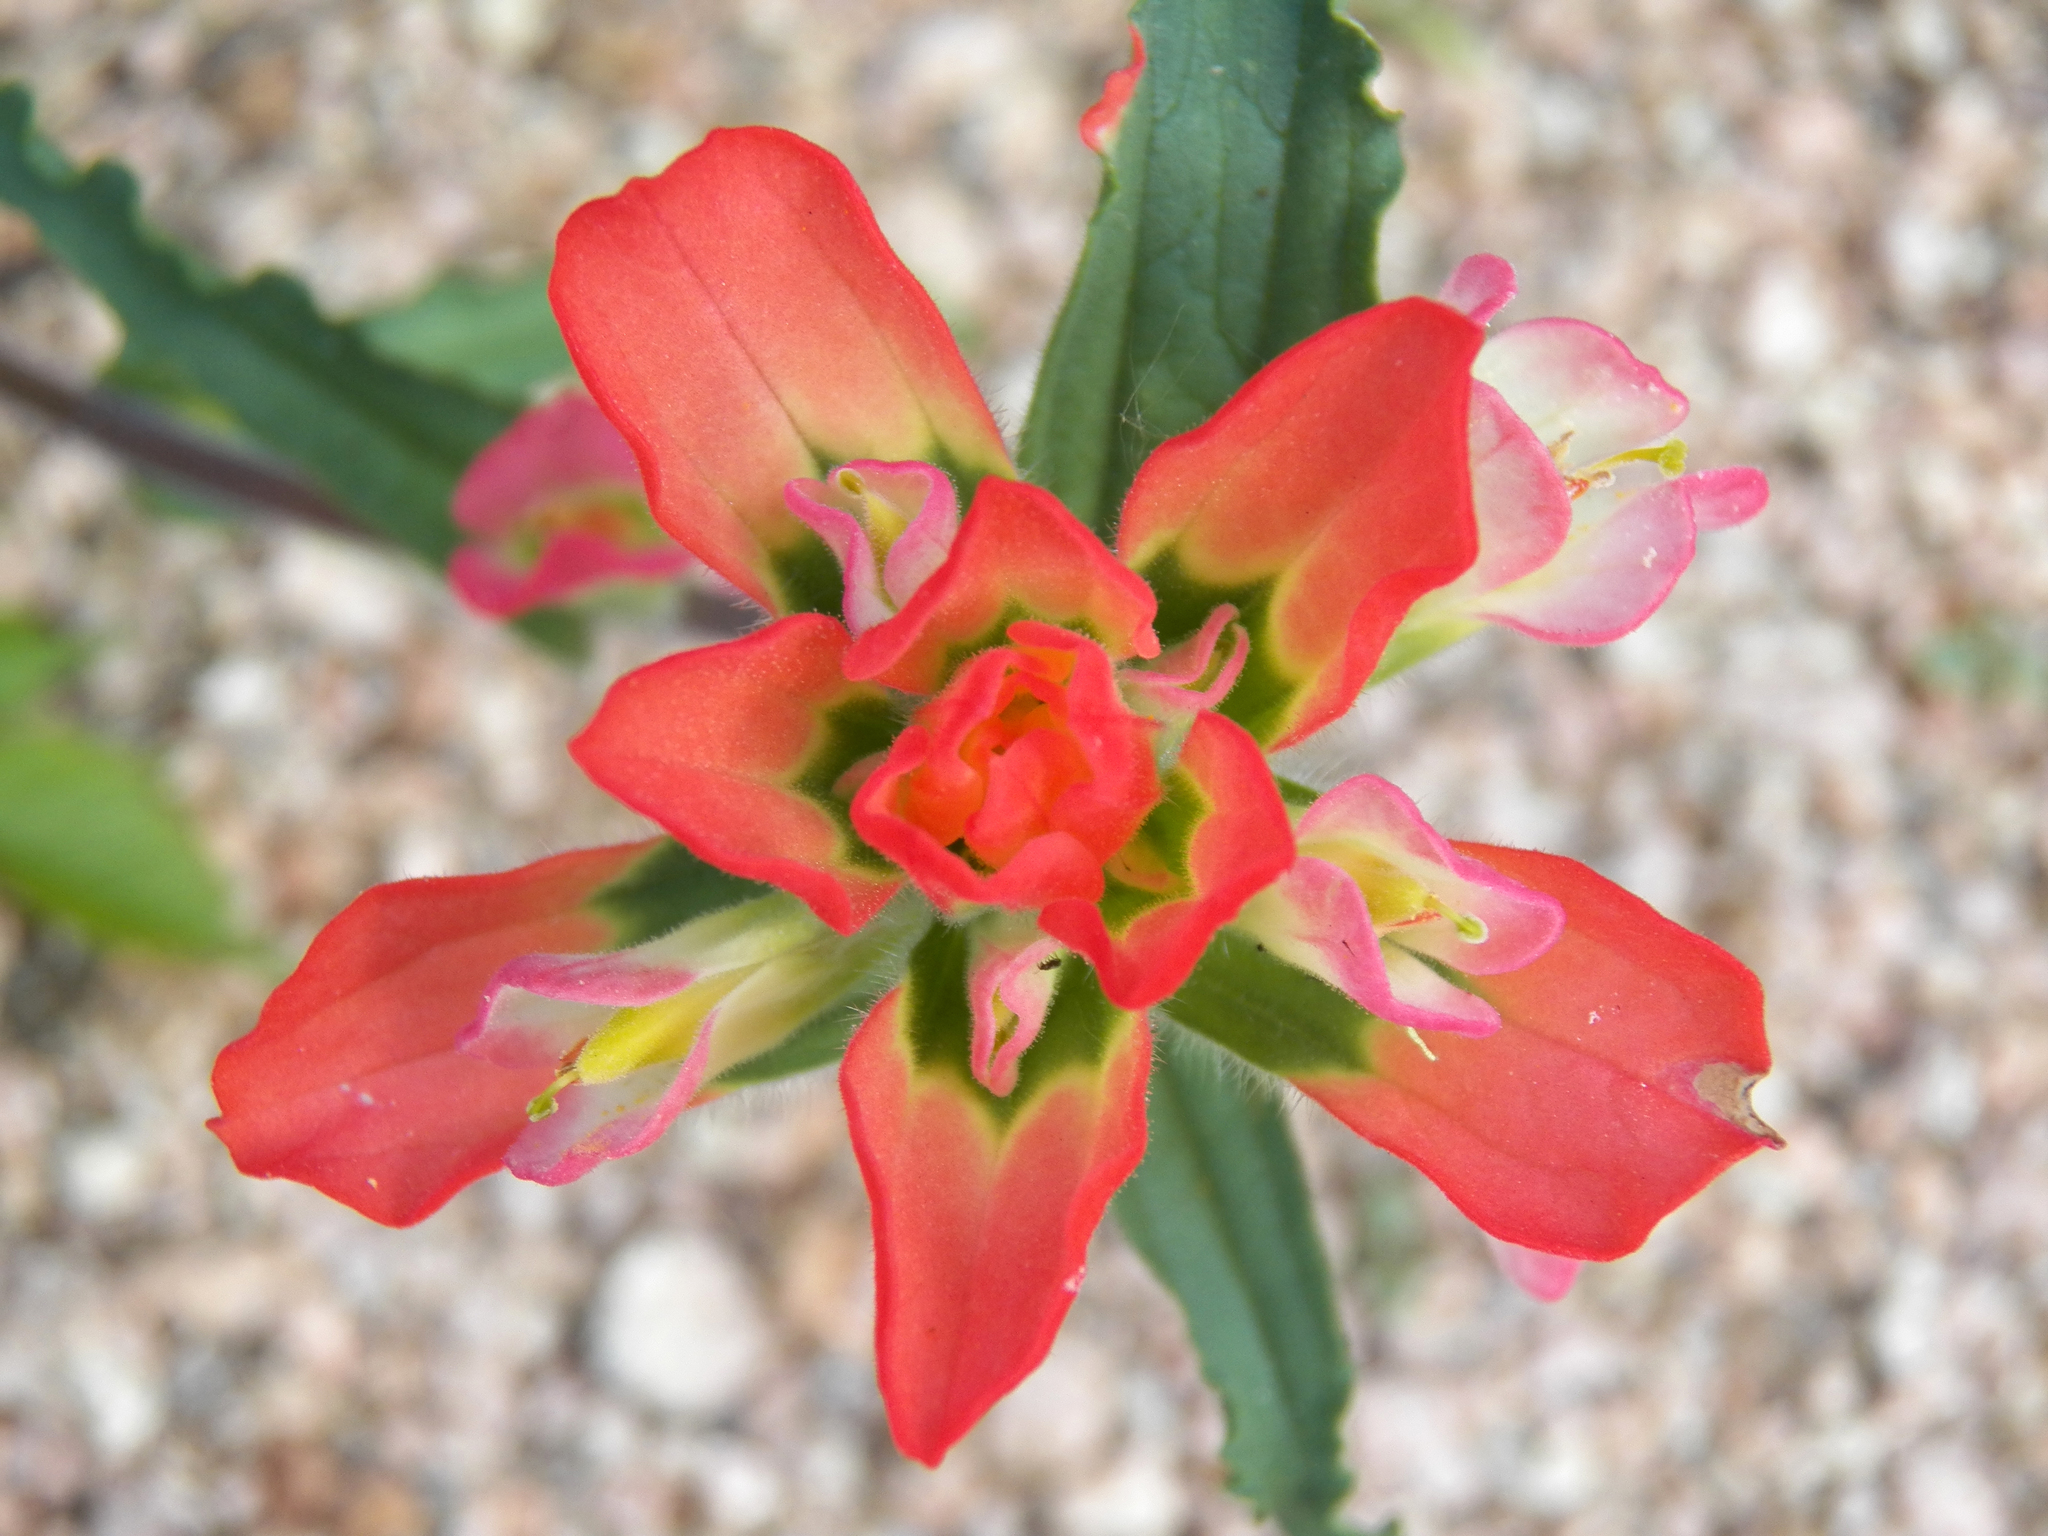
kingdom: Plantae
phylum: Tracheophyta
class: Magnoliopsida
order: Lamiales
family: Orobanchaceae
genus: Castilleja
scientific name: Castilleja indivisa
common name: Texas paintbrush
